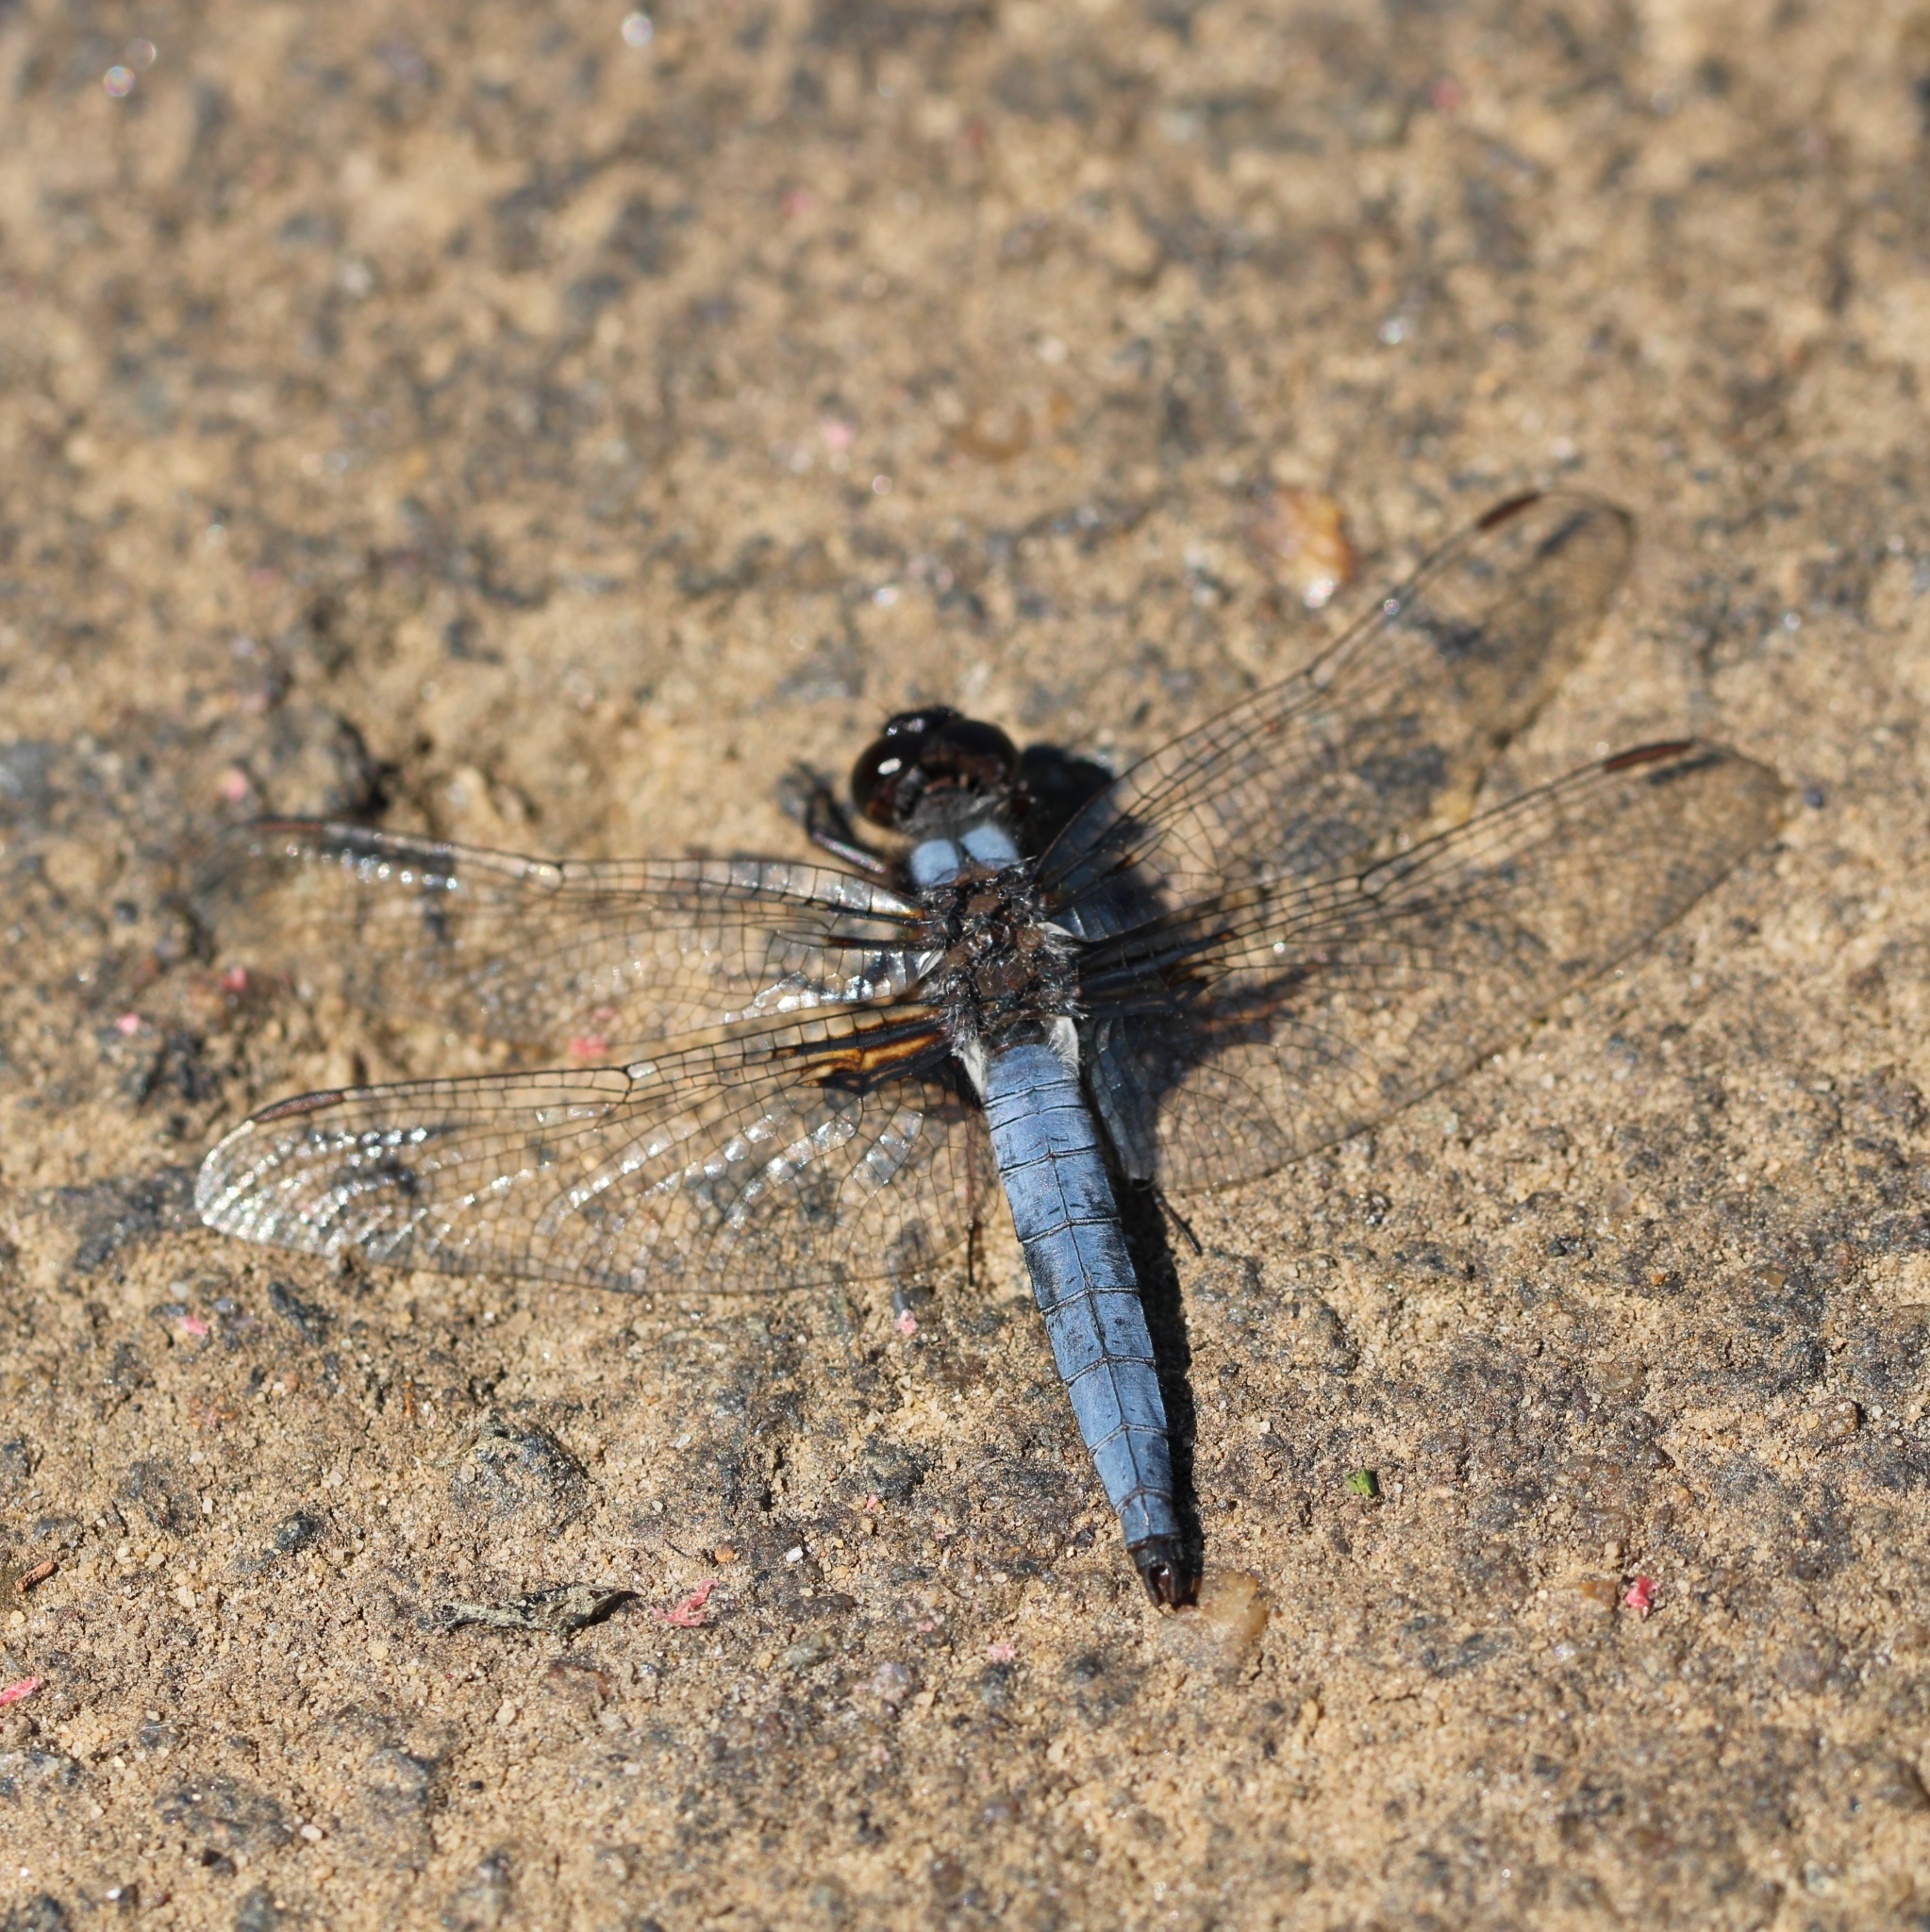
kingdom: Animalia
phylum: Arthropoda
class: Insecta
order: Odonata
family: Libellulidae
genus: Ladona
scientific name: Ladona deplanata
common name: Blue corporal
